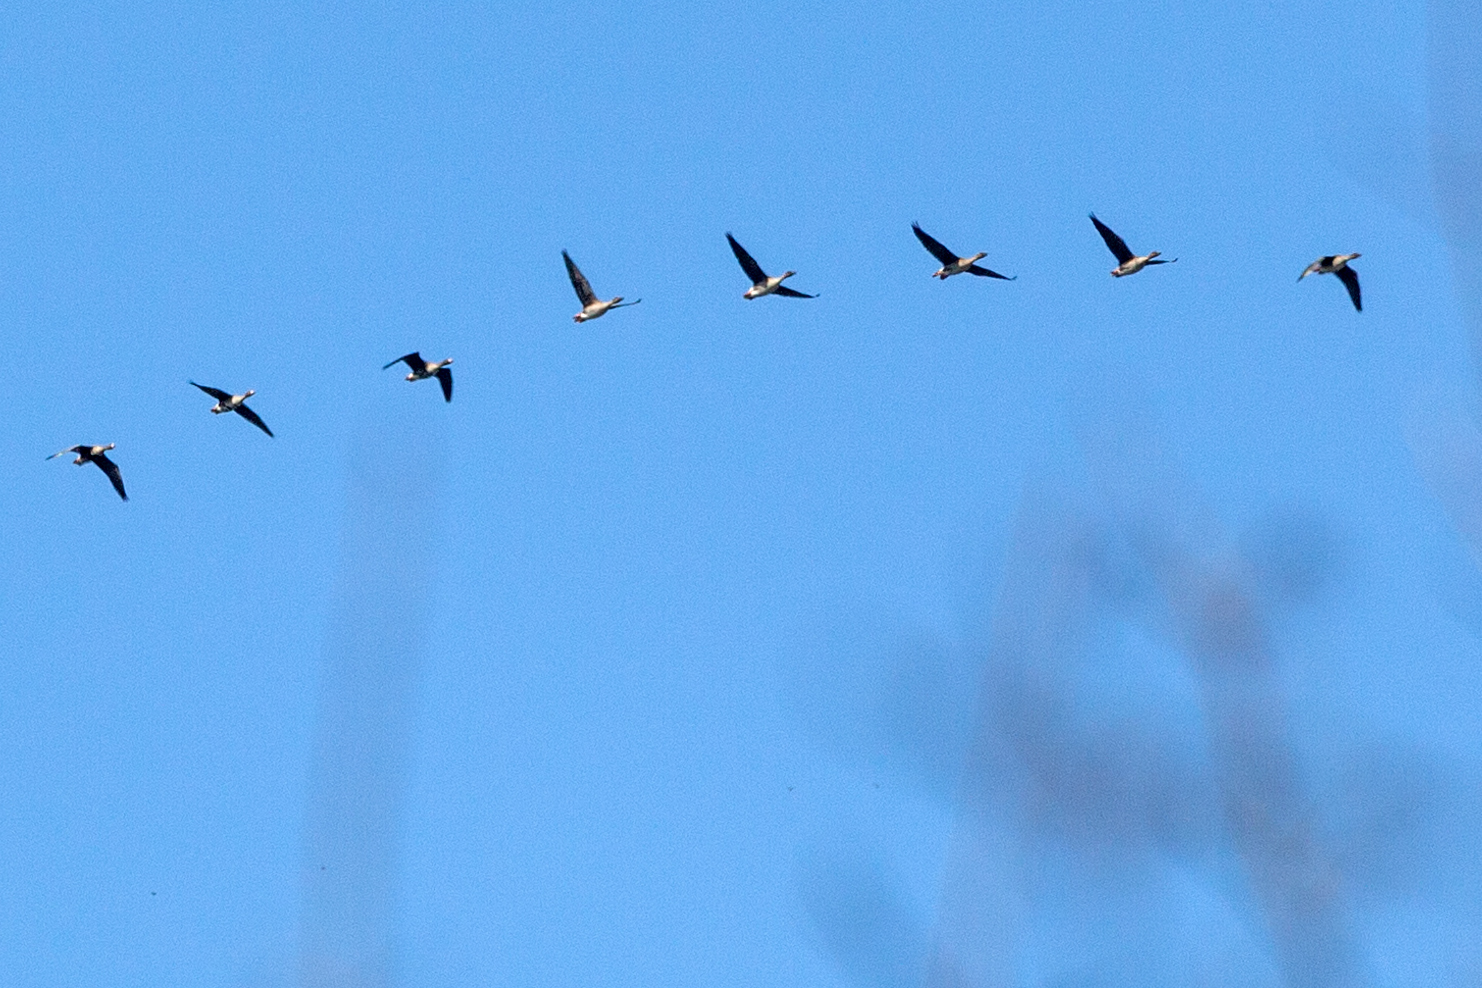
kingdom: Animalia
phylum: Chordata
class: Aves
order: Anseriformes
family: Anatidae
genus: Anser
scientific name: Anser fabalis
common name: Bean goose
